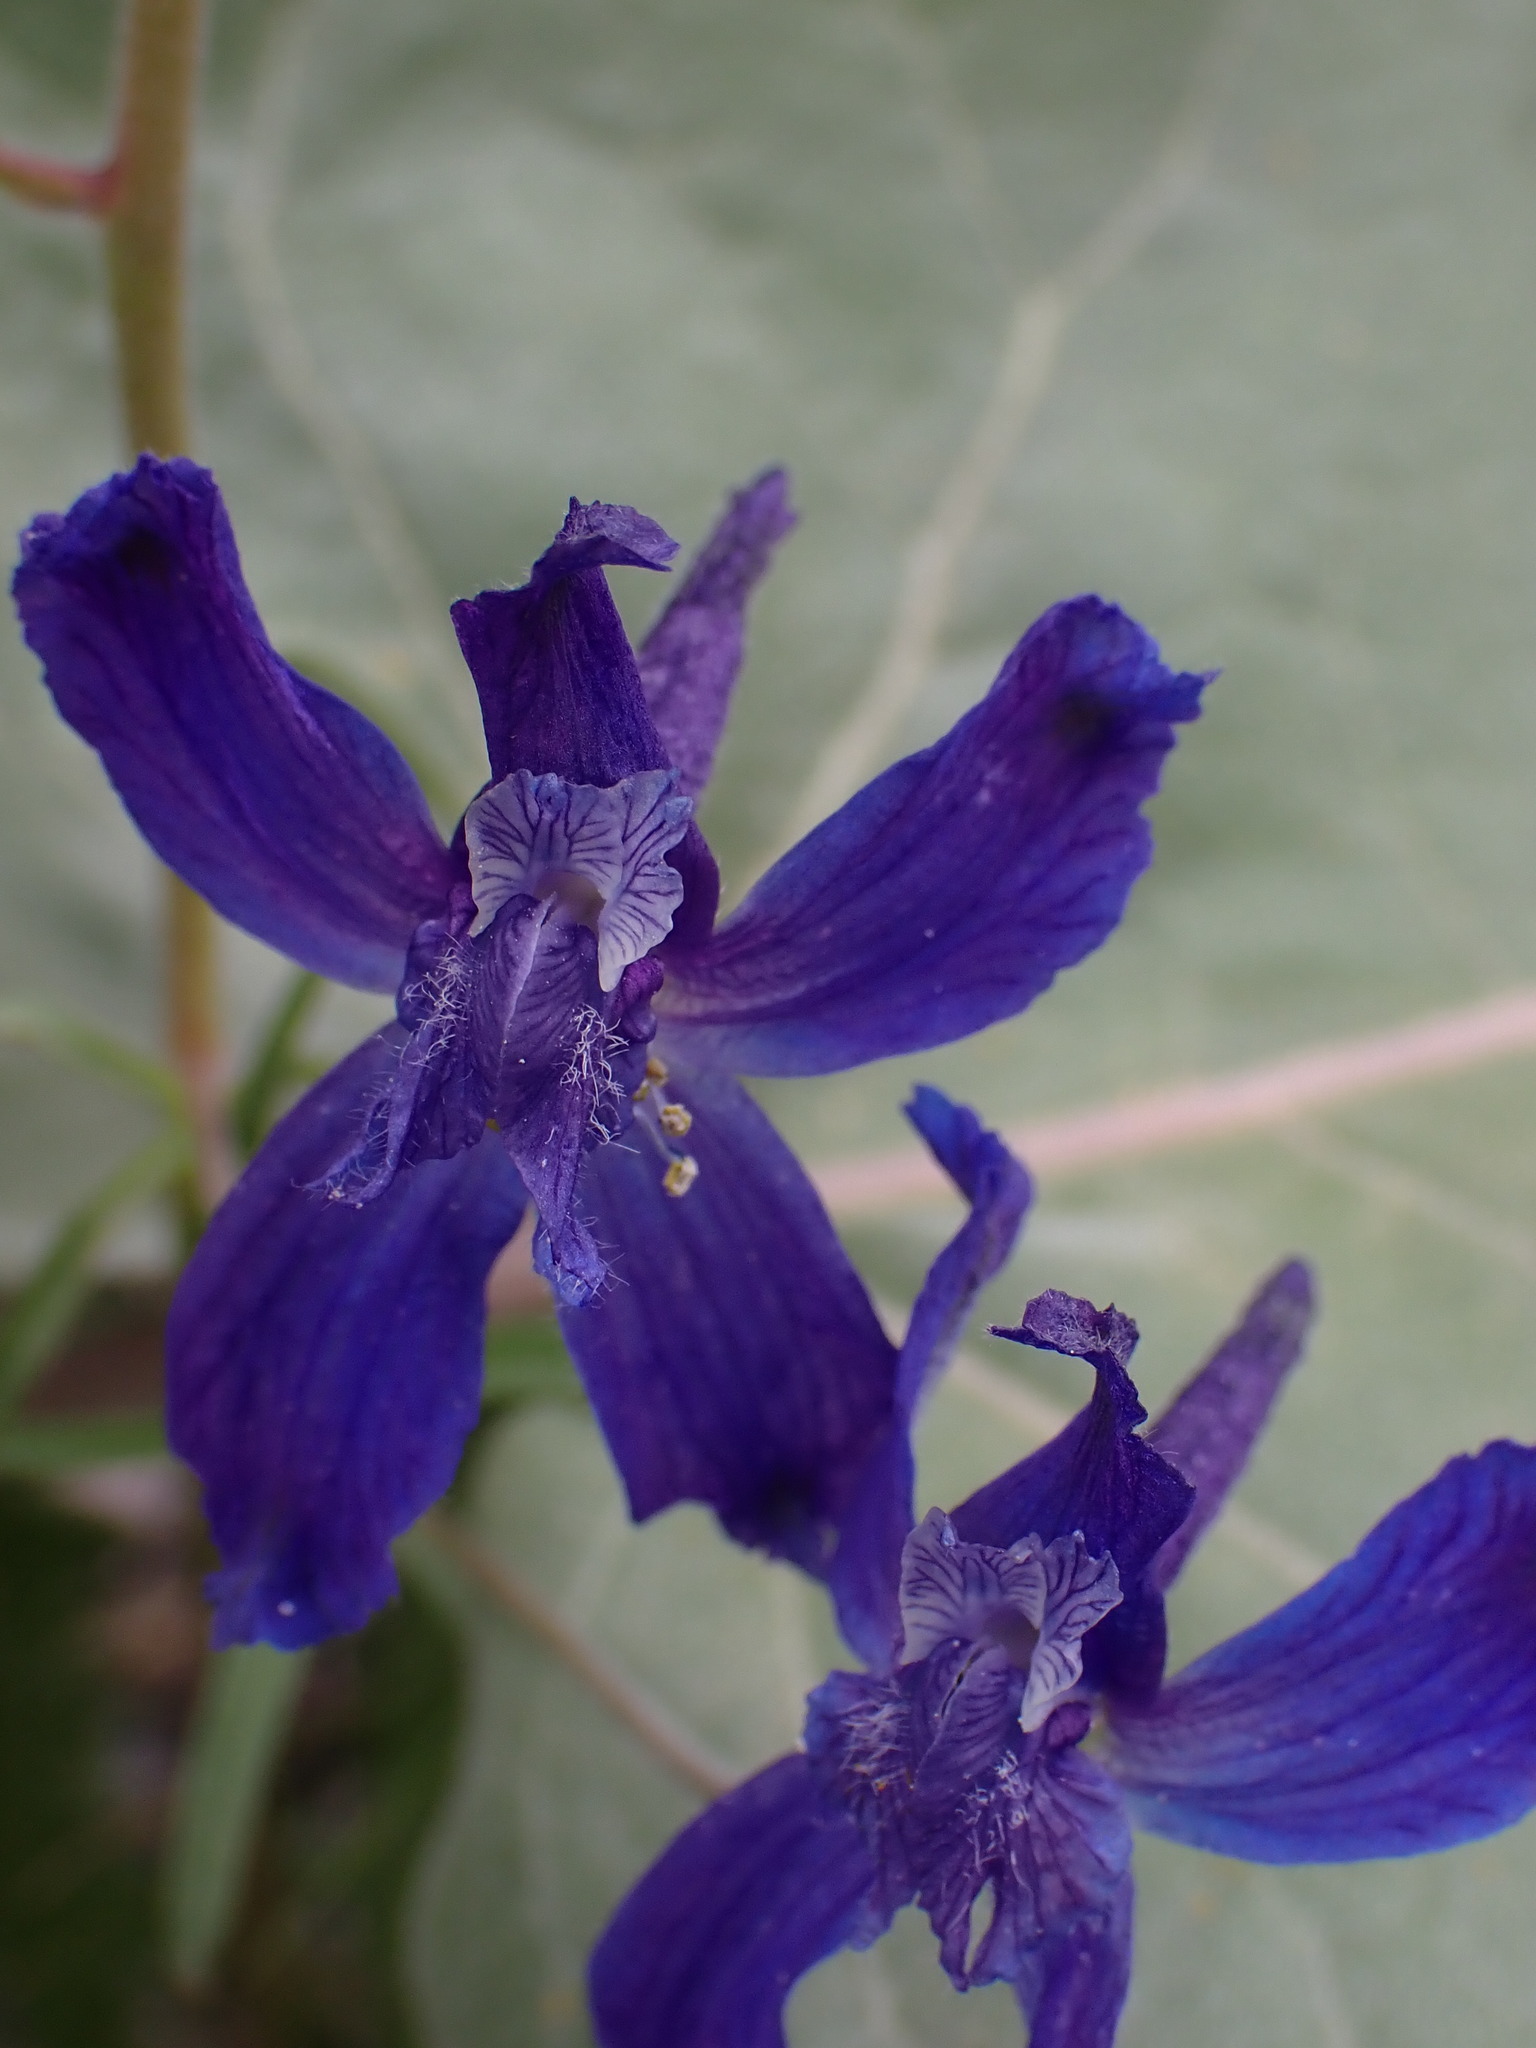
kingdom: Plantae
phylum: Tracheophyta
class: Magnoliopsida
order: Ranunculales
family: Ranunculaceae
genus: Delphinium
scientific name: Delphinium nuttallianum
